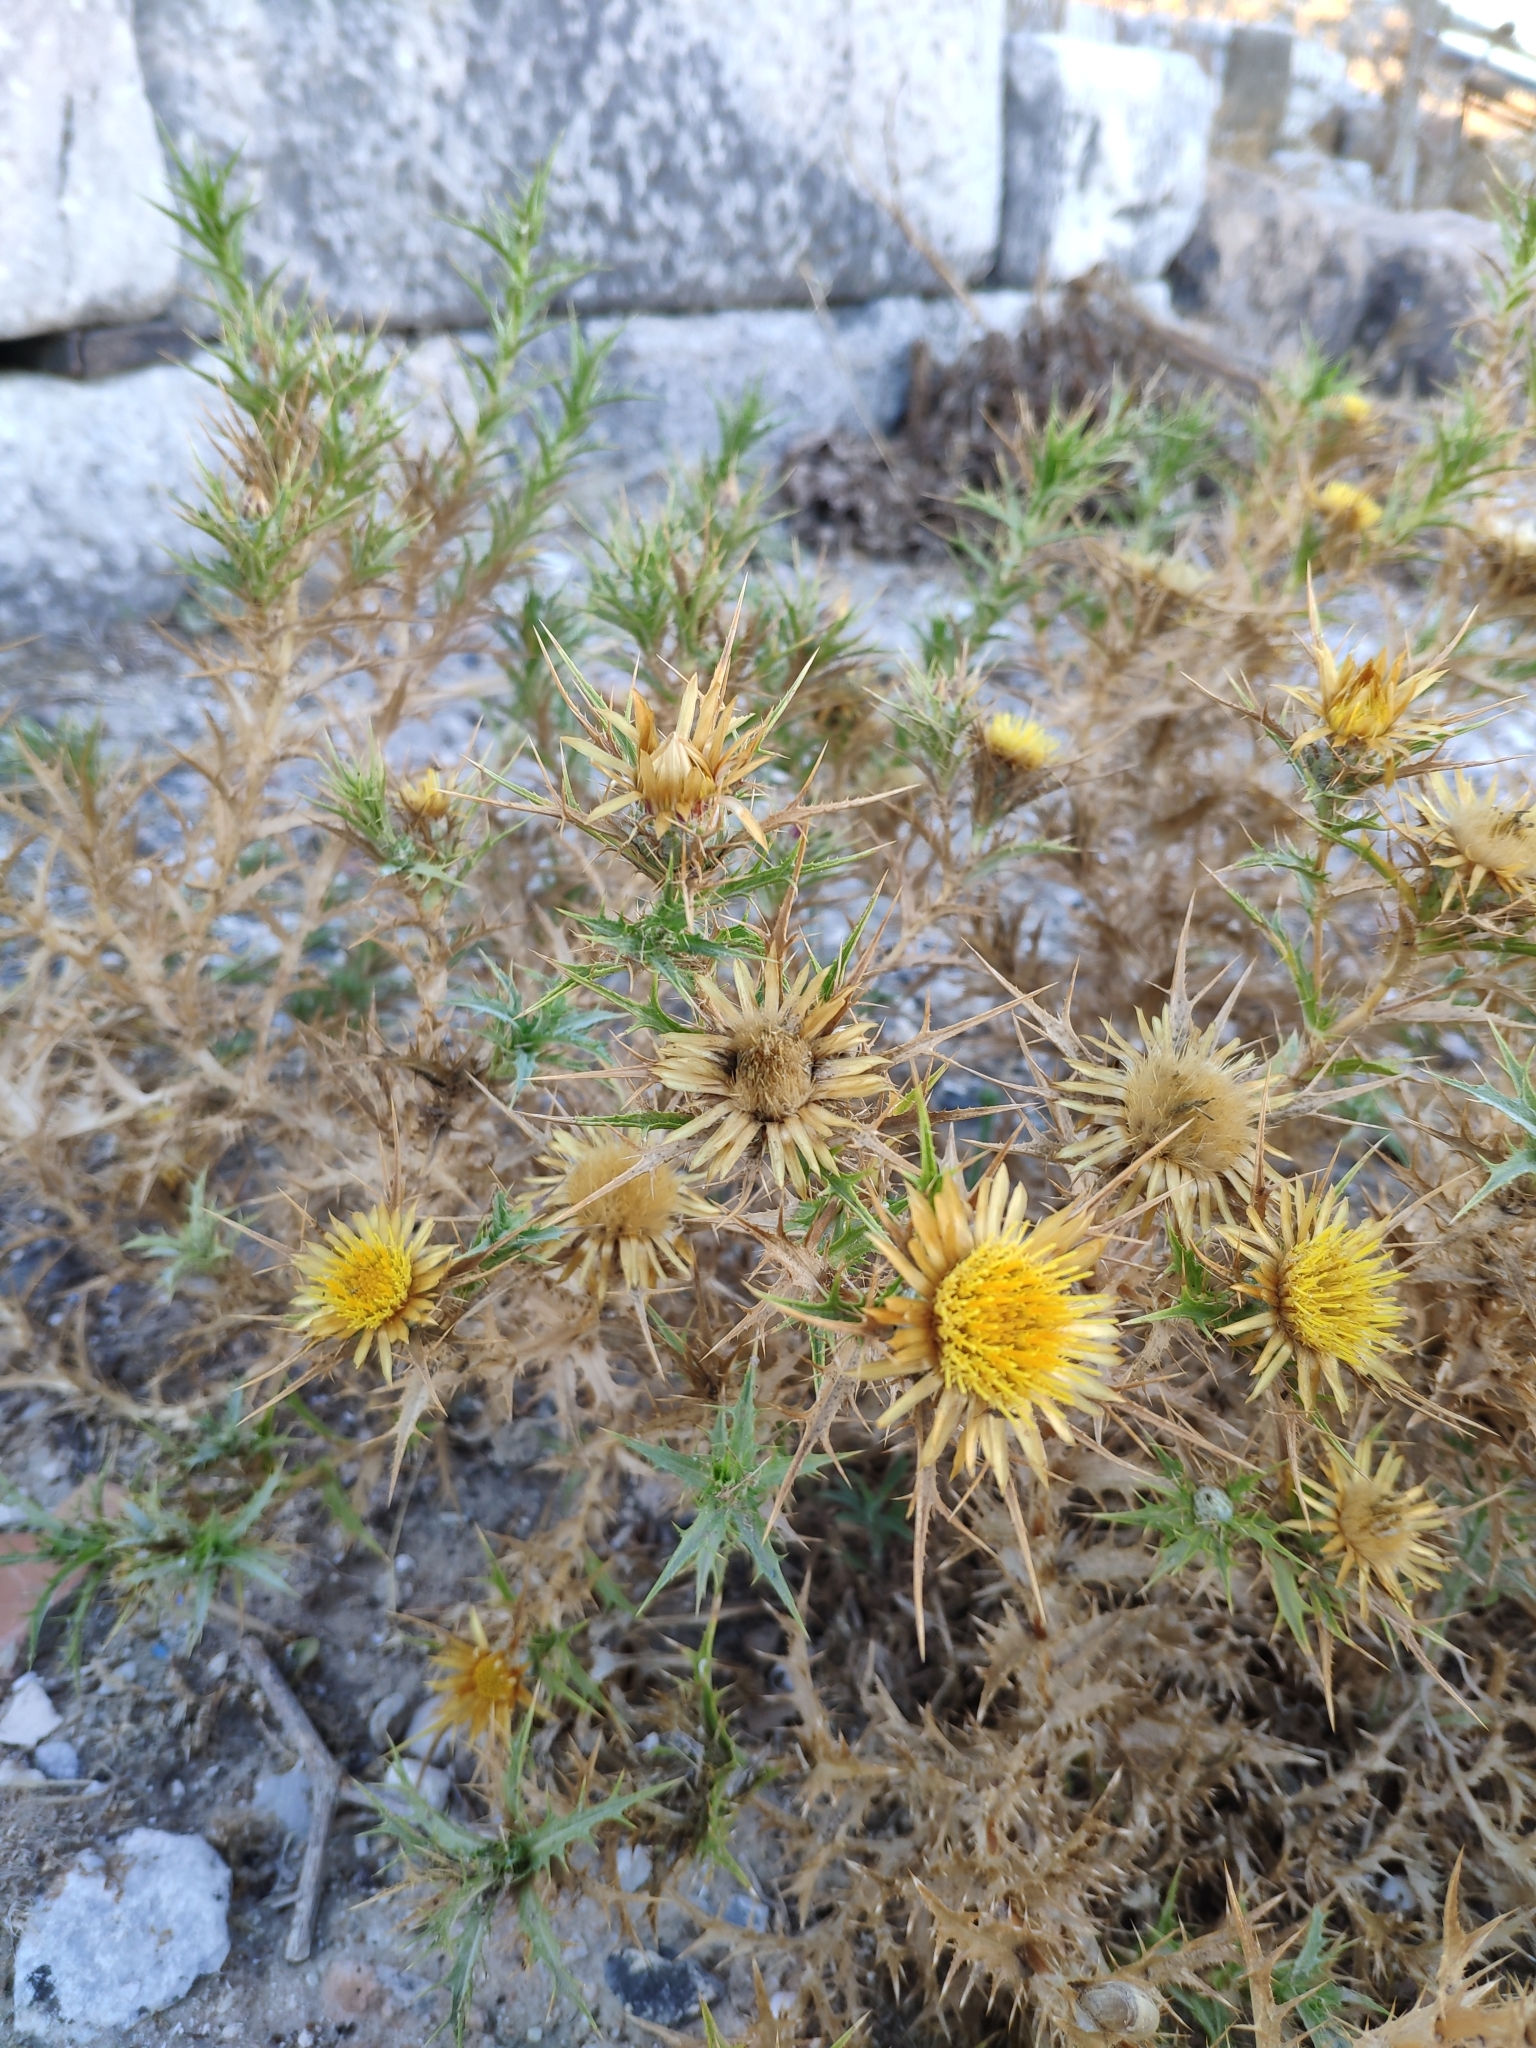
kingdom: Plantae
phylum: Tracheophyta
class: Magnoliopsida
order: Asterales
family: Asteraceae
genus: Carlina
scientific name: Carlina corymbosa
